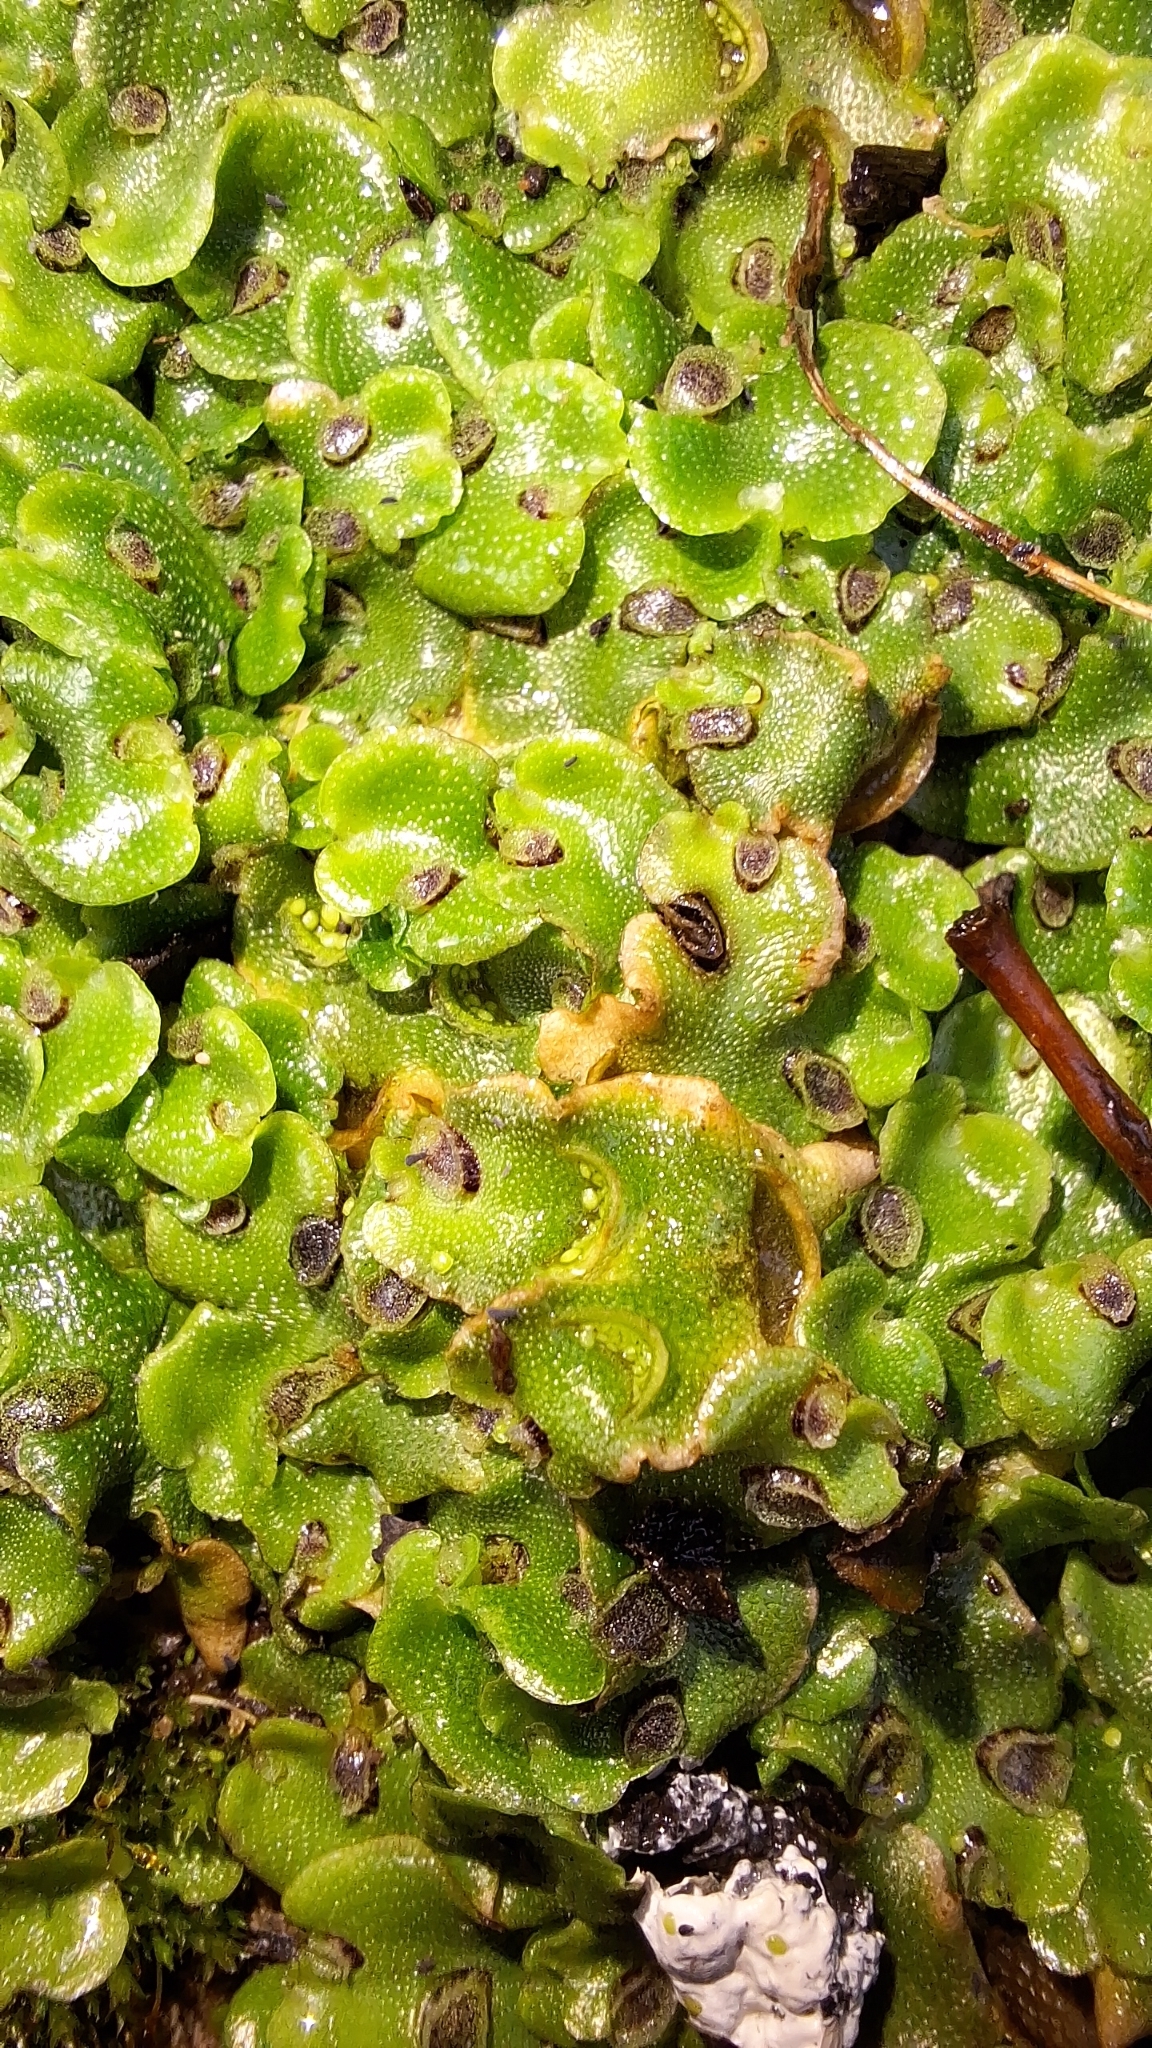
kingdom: Plantae
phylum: Marchantiophyta
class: Marchantiopsida
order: Lunulariales
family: Lunulariaceae
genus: Lunularia
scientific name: Lunularia cruciata
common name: Crescent-cup liverwort
